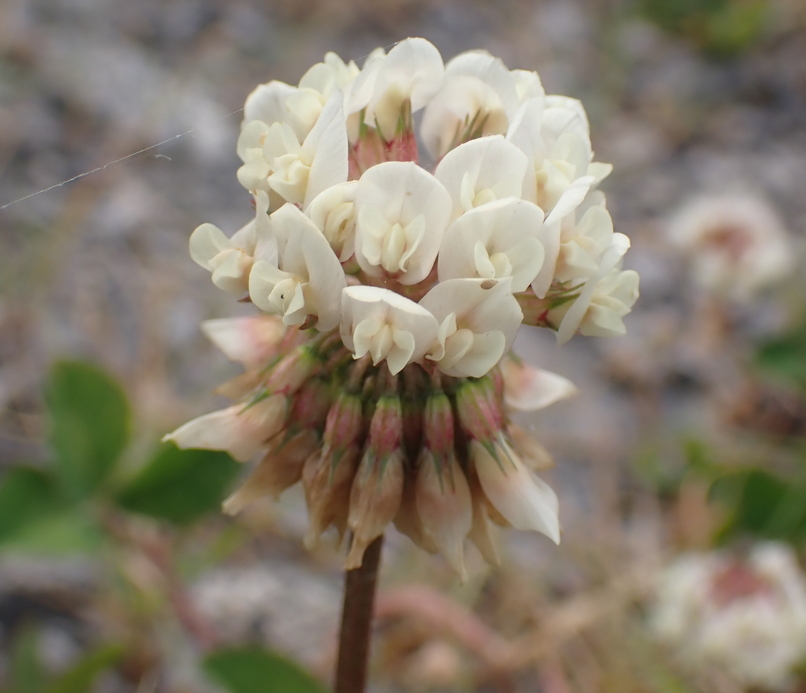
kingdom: Plantae
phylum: Tracheophyta
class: Magnoliopsida
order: Fabales
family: Fabaceae
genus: Trifolium
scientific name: Trifolium repens
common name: White clover
